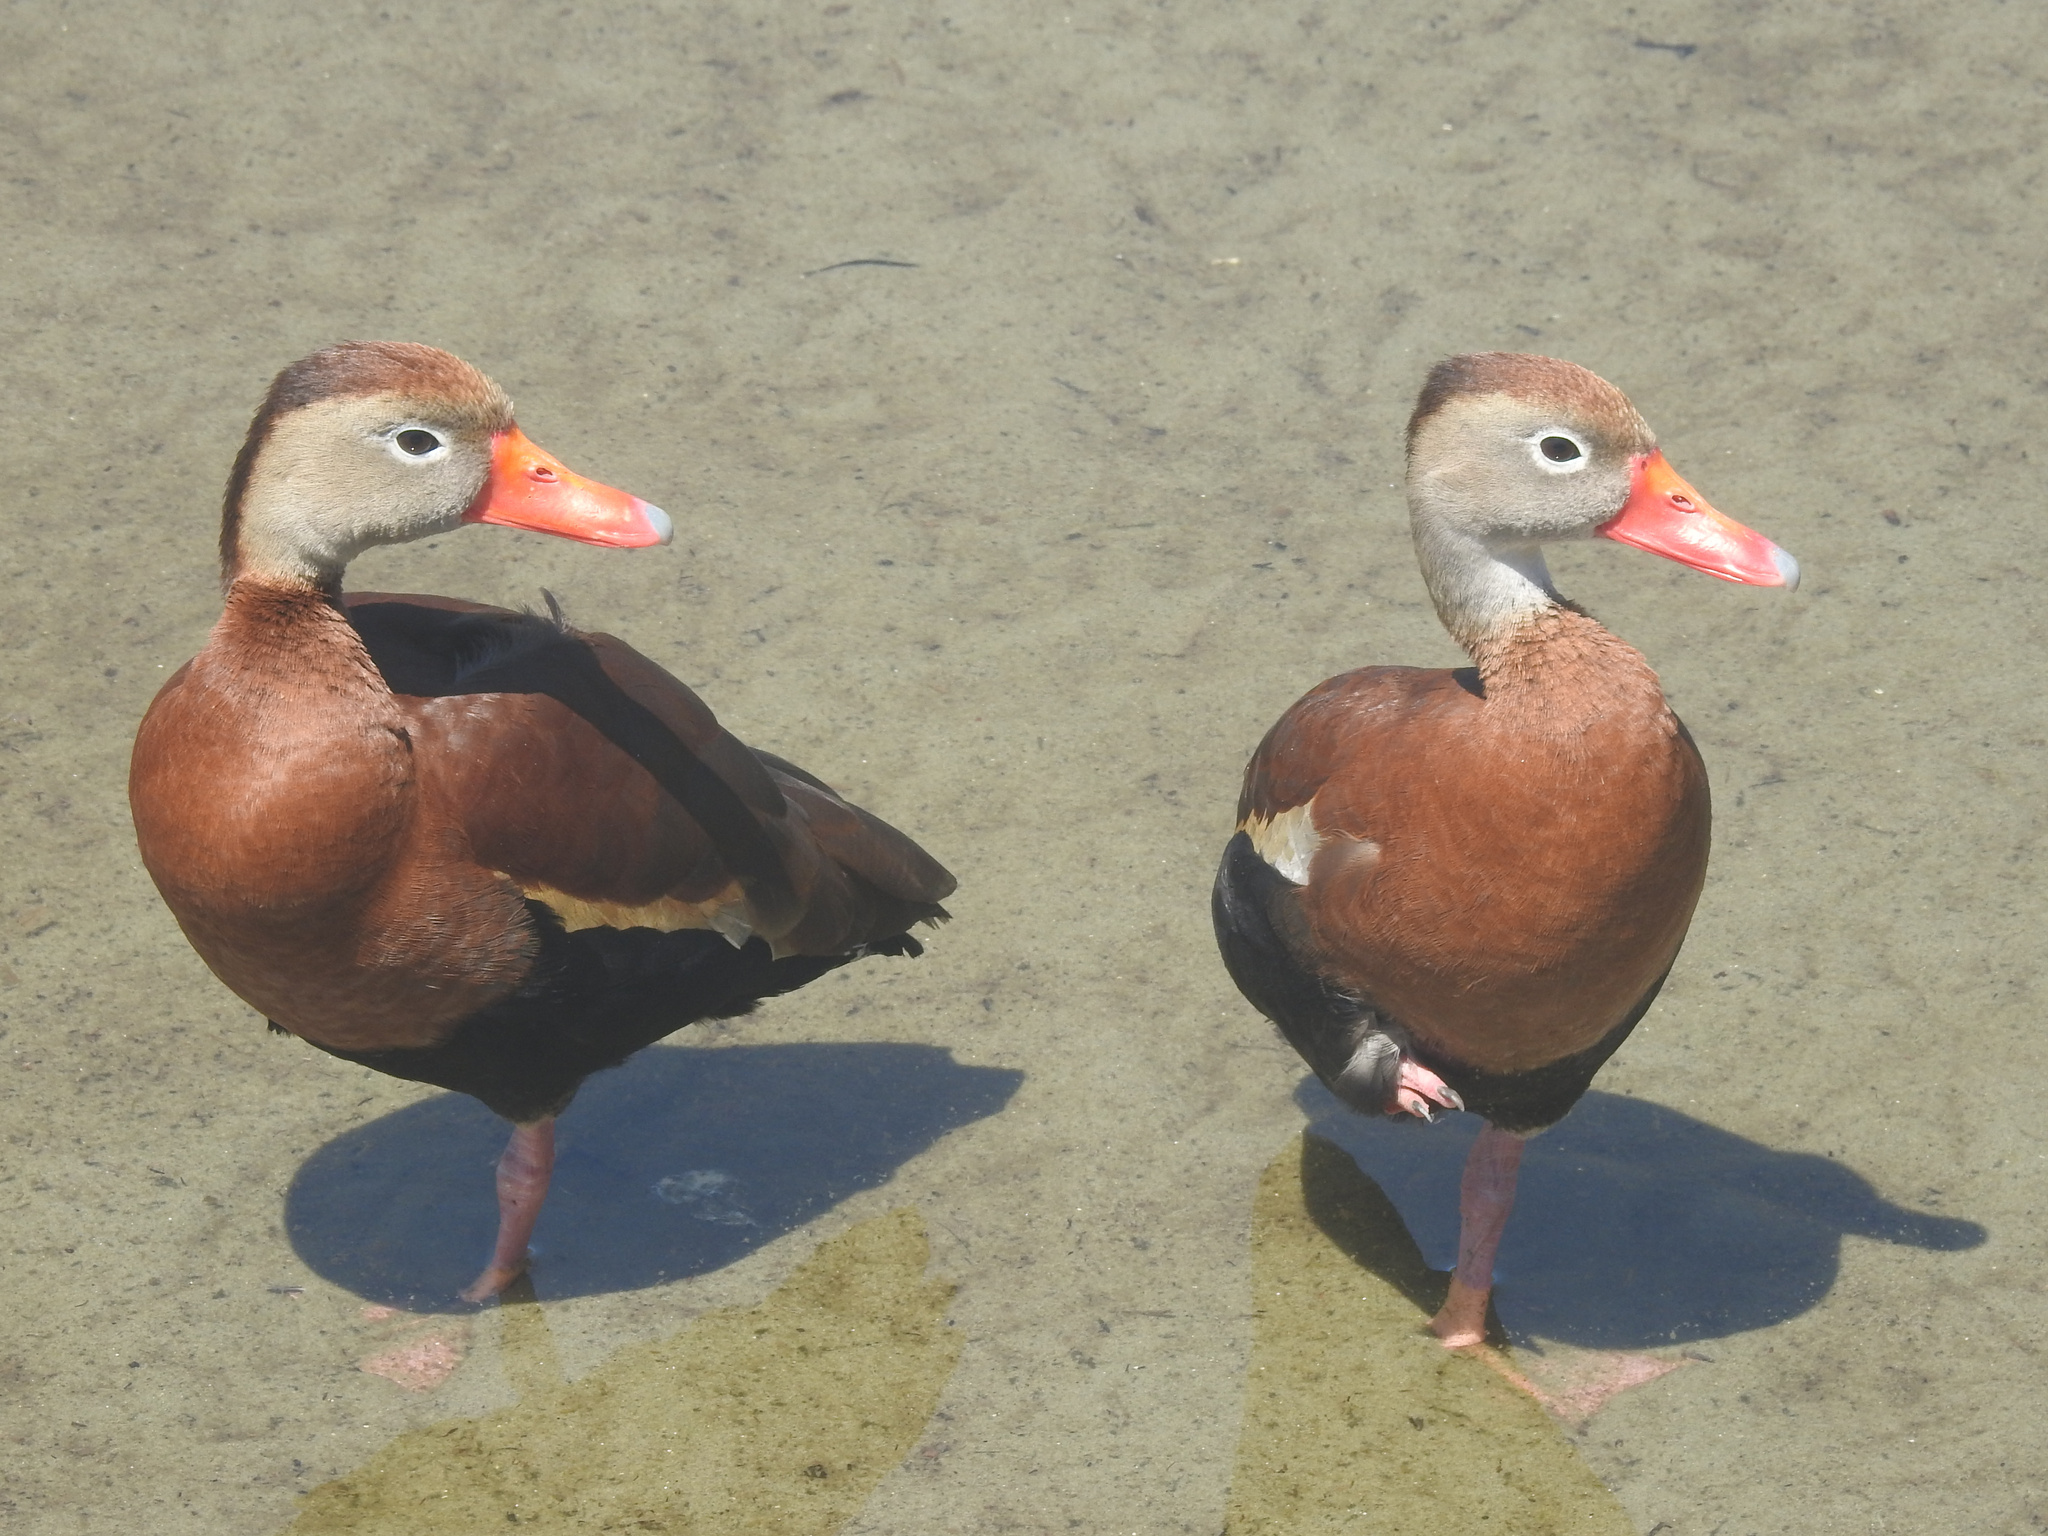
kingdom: Animalia
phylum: Chordata
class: Aves
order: Anseriformes
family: Anatidae
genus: Dendrocygna
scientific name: Dendrocygna autumnalis
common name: Black-bellied whistling duck
